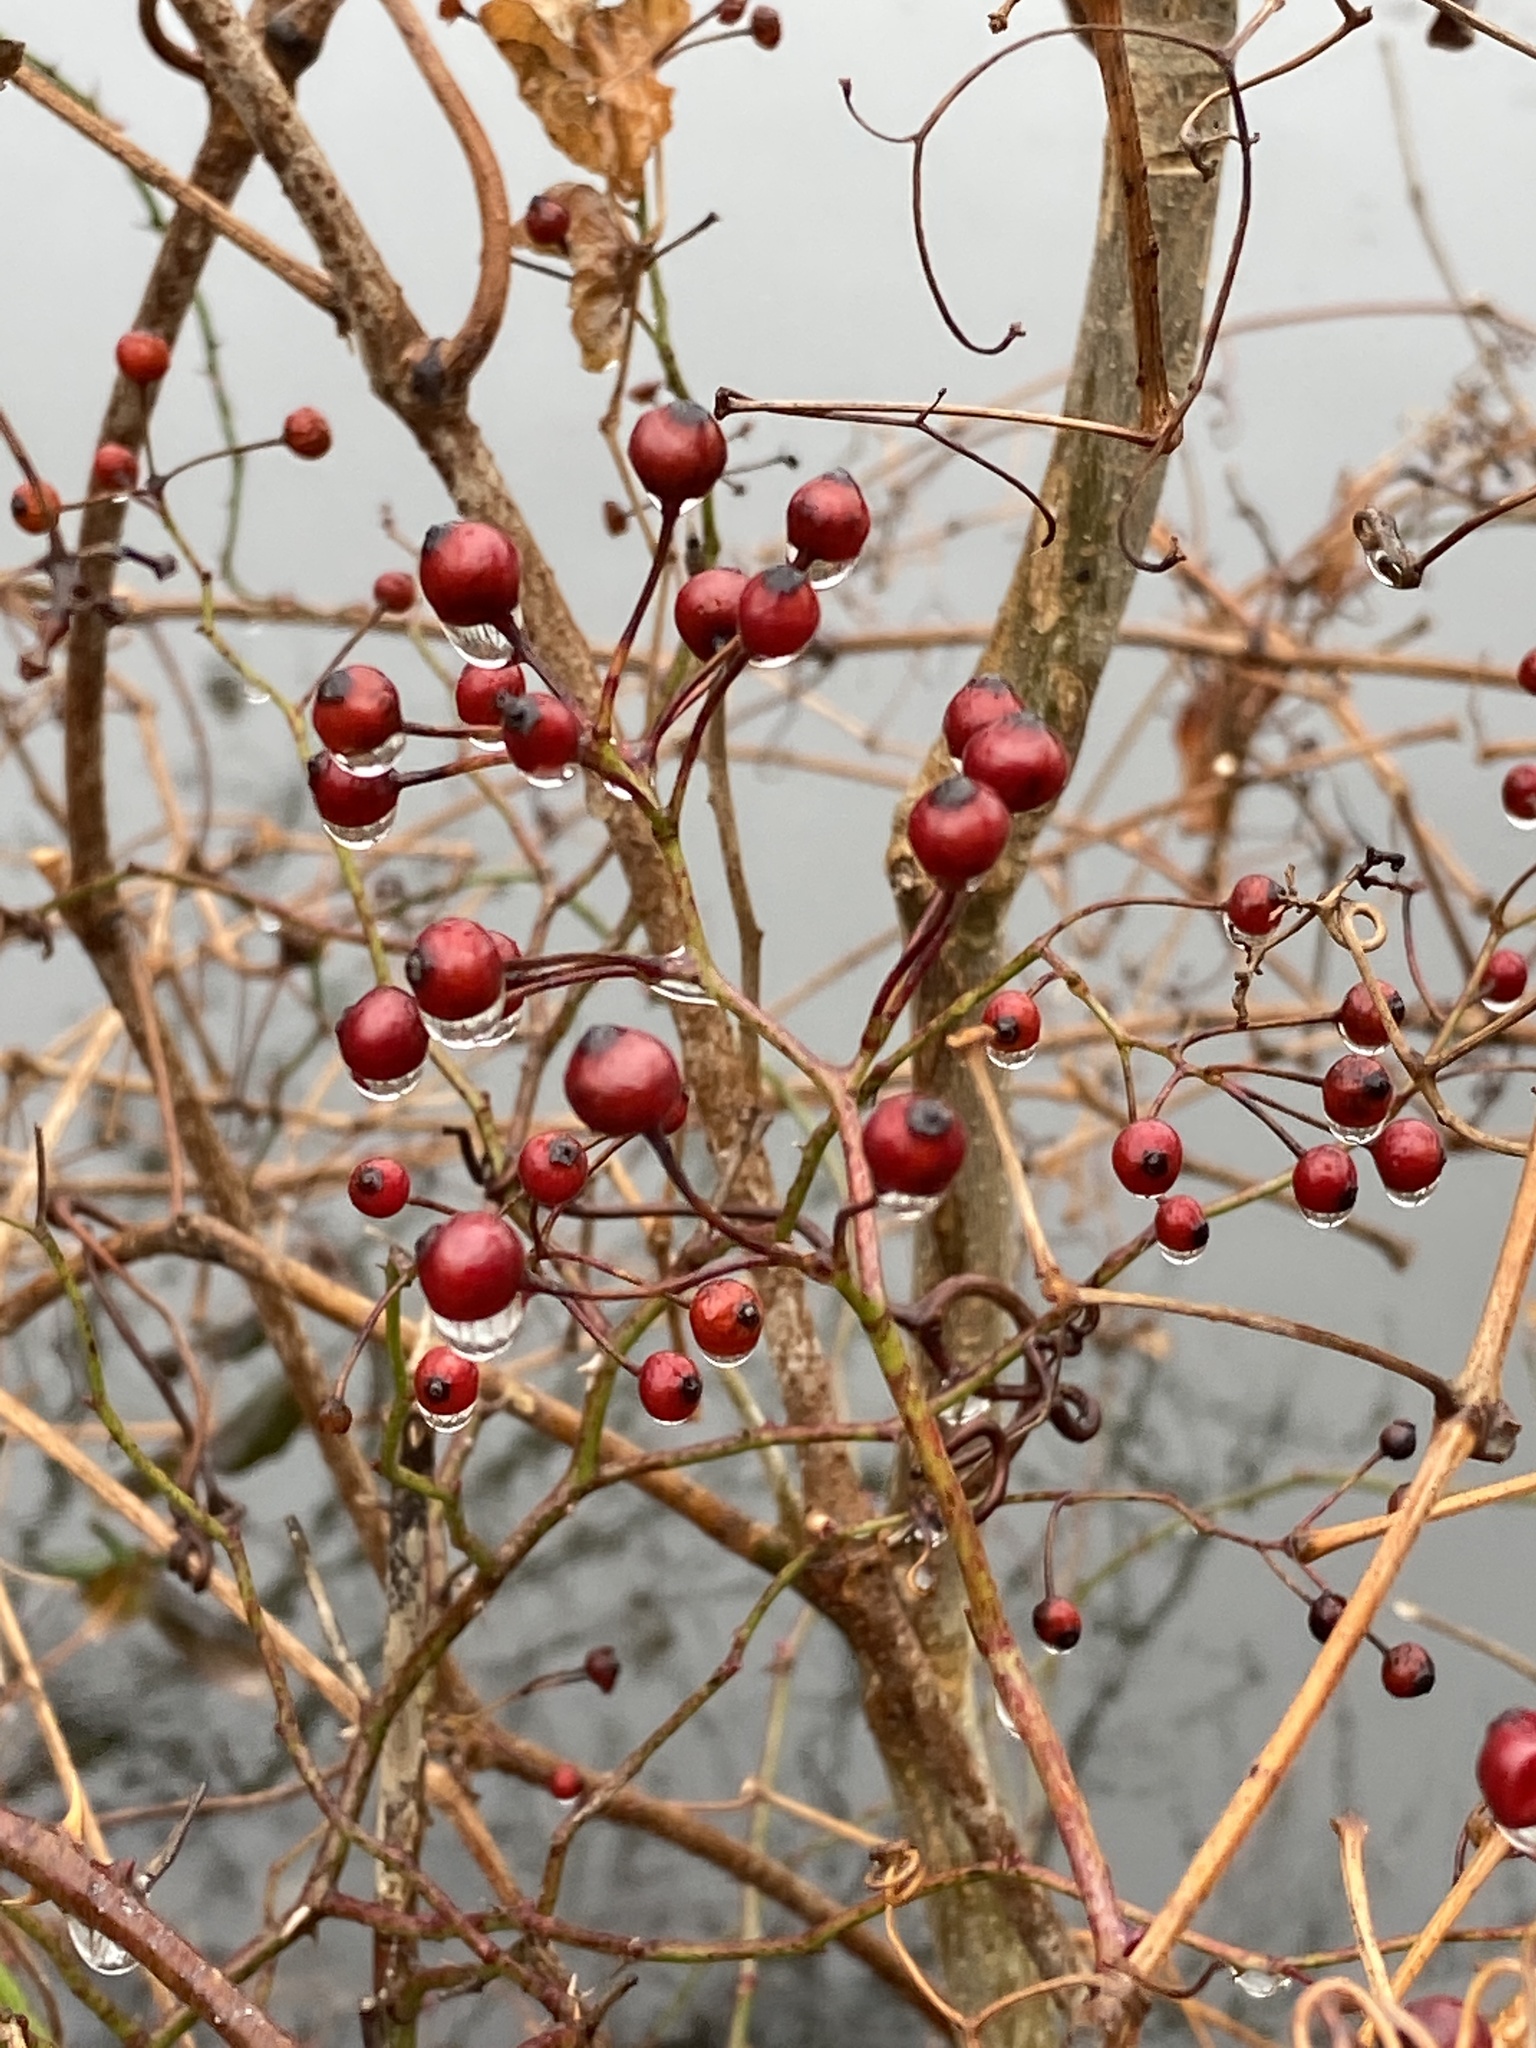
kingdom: Plantae
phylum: Tracheophyta
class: Magnoliopsida
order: Rosales
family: Rosaceae
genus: Rosa
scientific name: Rosa multiflora
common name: Multiflora rose
